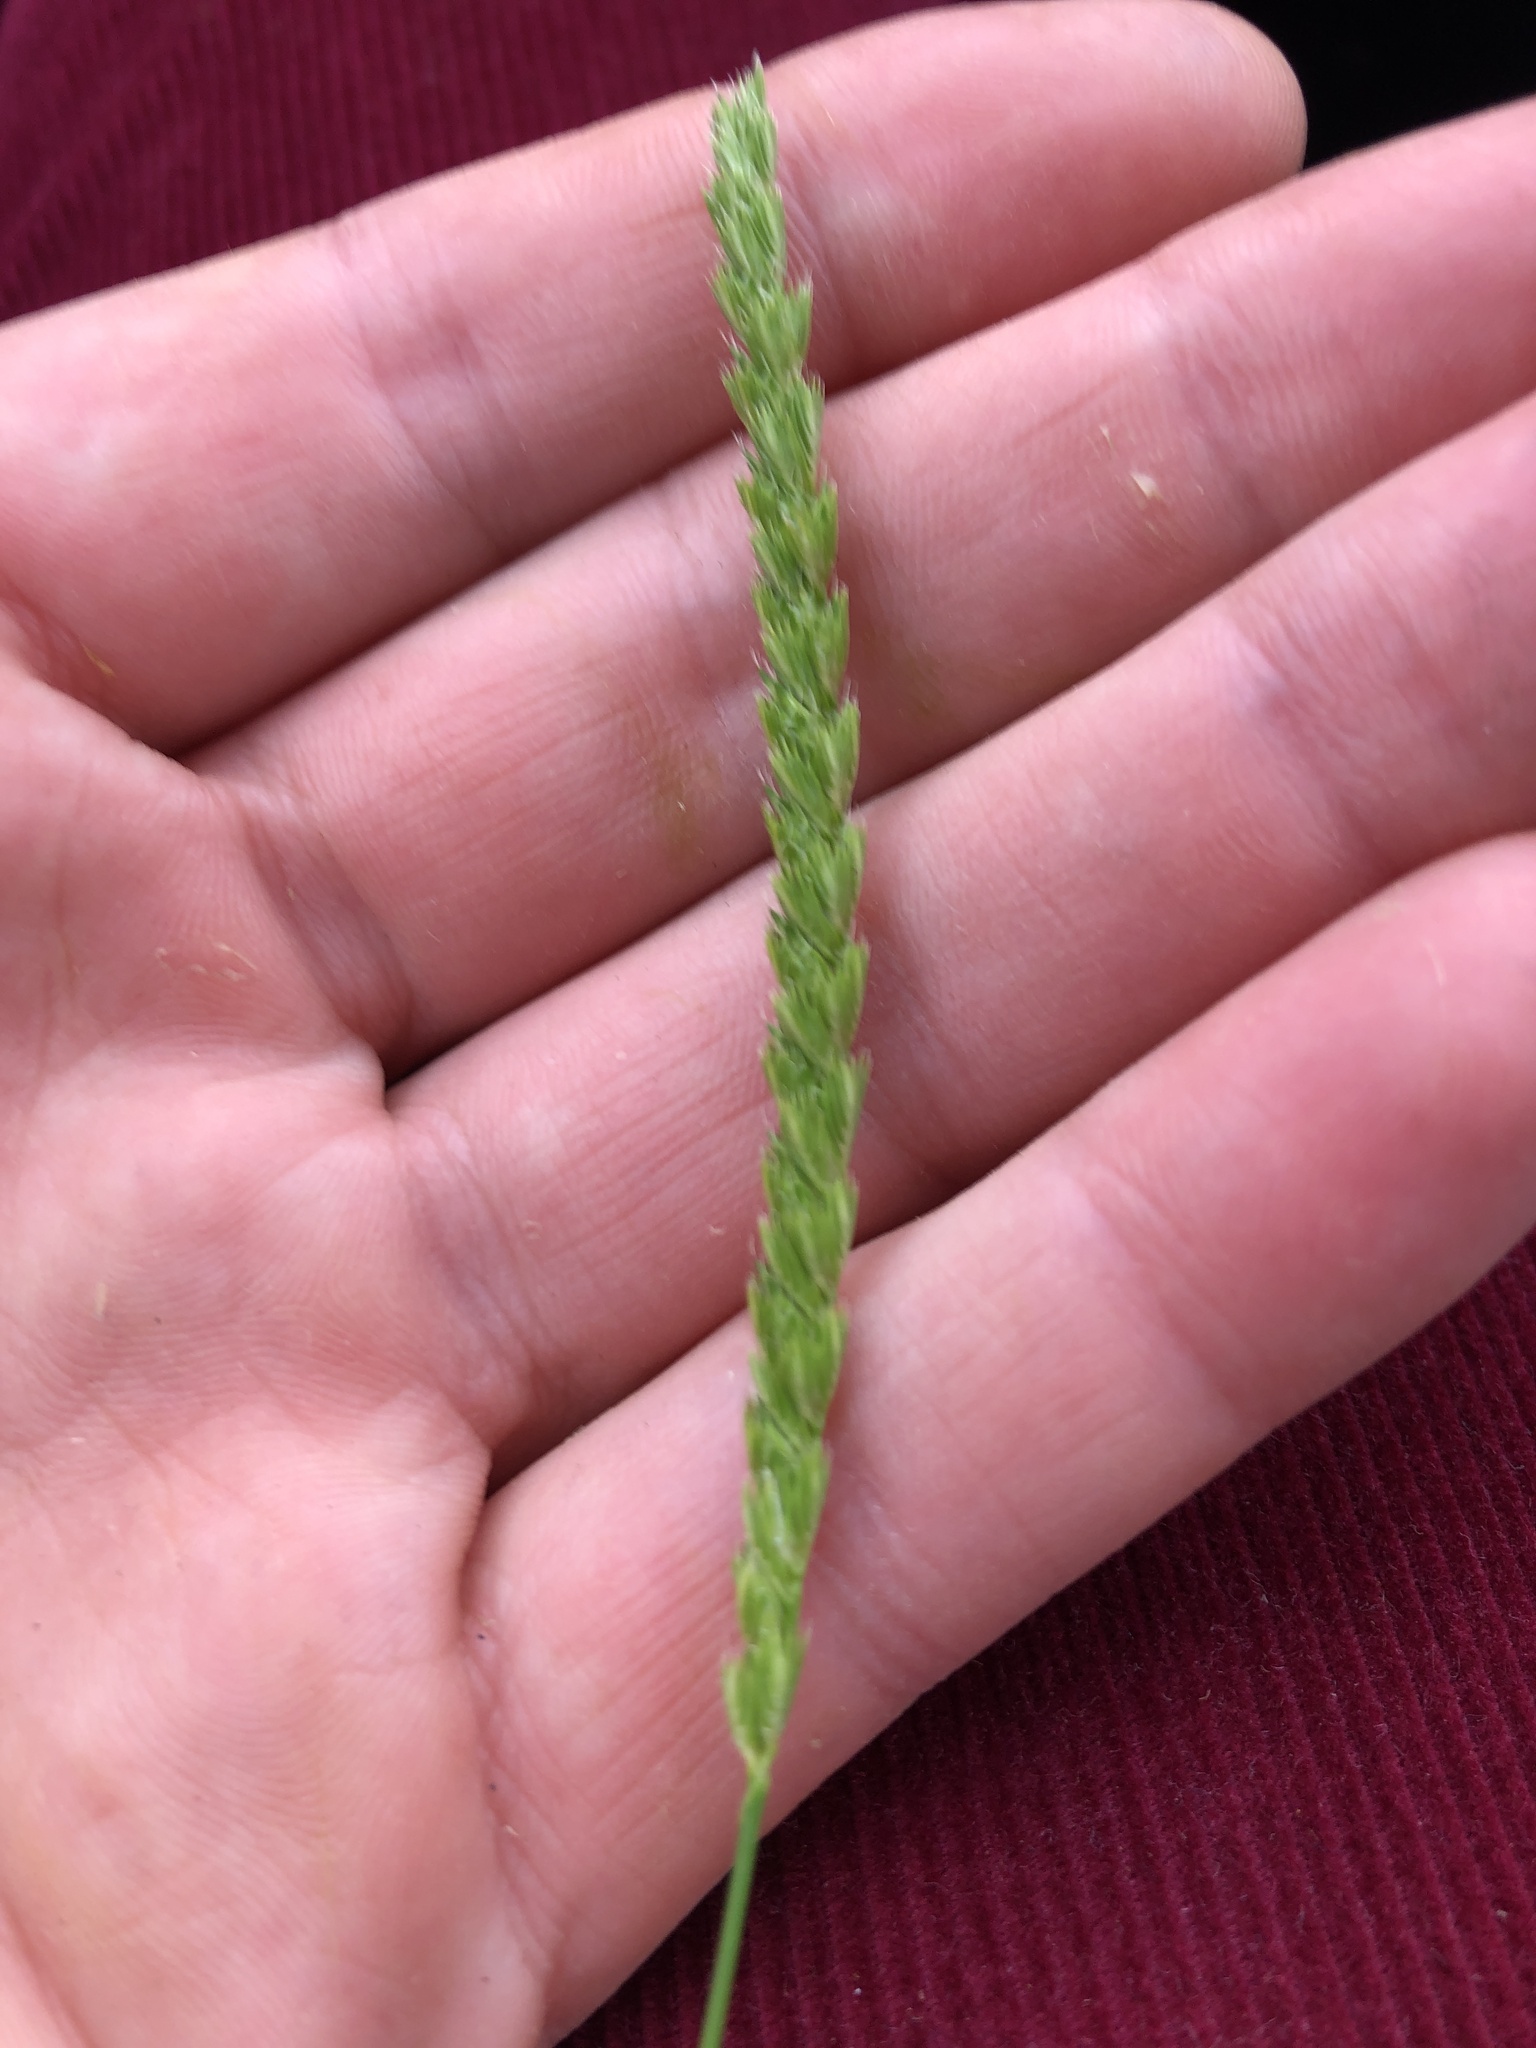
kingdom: Plantae
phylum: Tracheophyta
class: Liliopsida
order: Poales
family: Poaceae
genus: Cynosurus
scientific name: Cynosurus cristatus
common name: Crested dog's-tail
